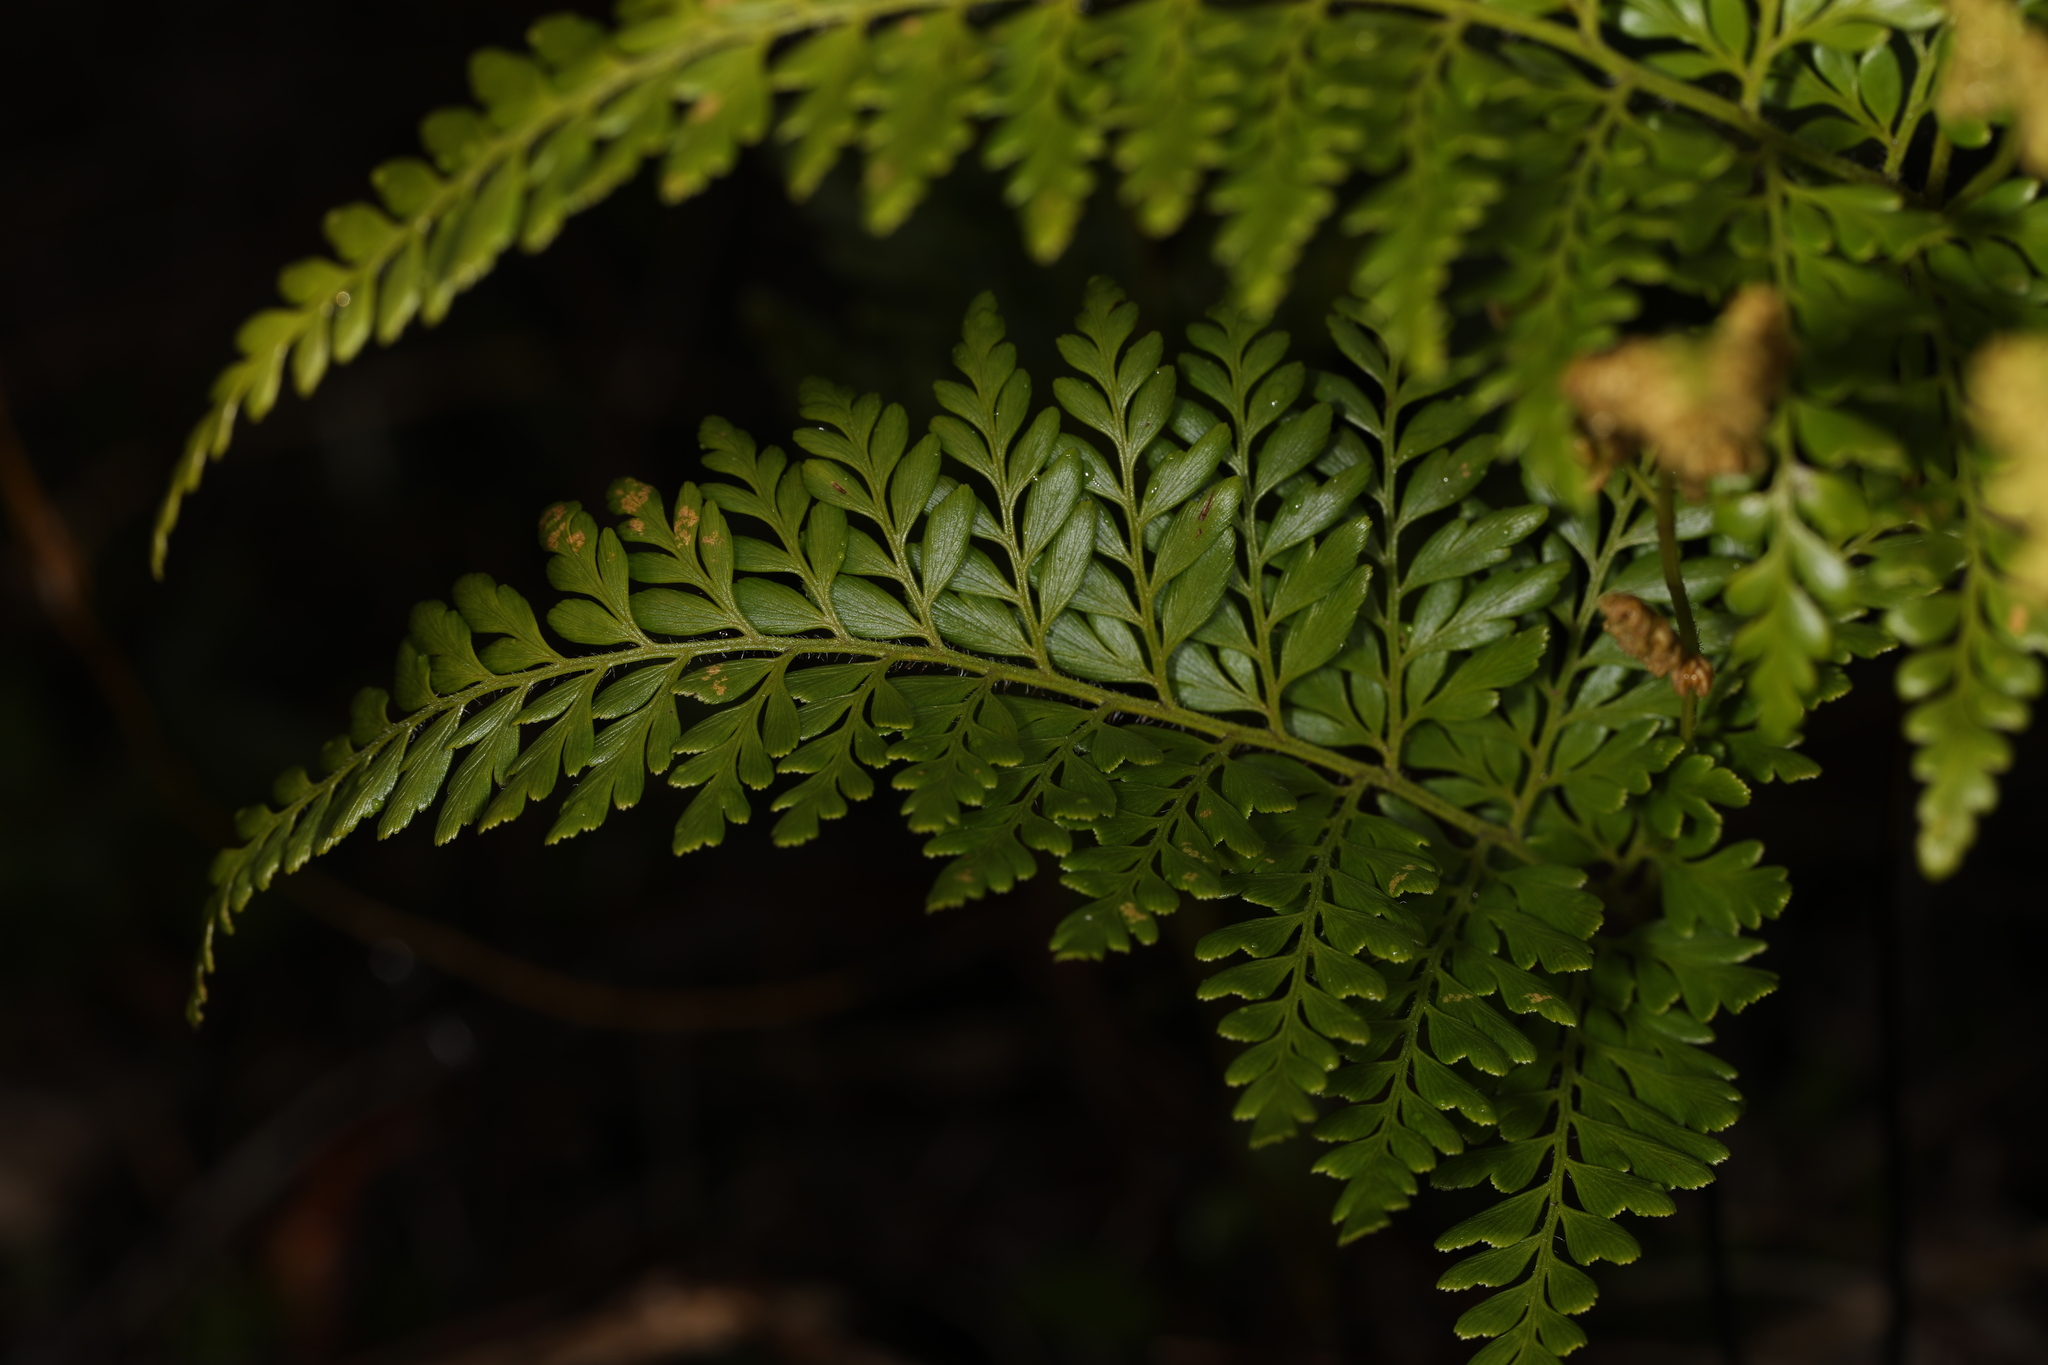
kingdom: Plantae
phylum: Tracheophyta
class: Polypodiopsida
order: Schizaeales
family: Anemiaceae
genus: Anemia
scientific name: Anemia adiantifolia
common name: Pine fern
